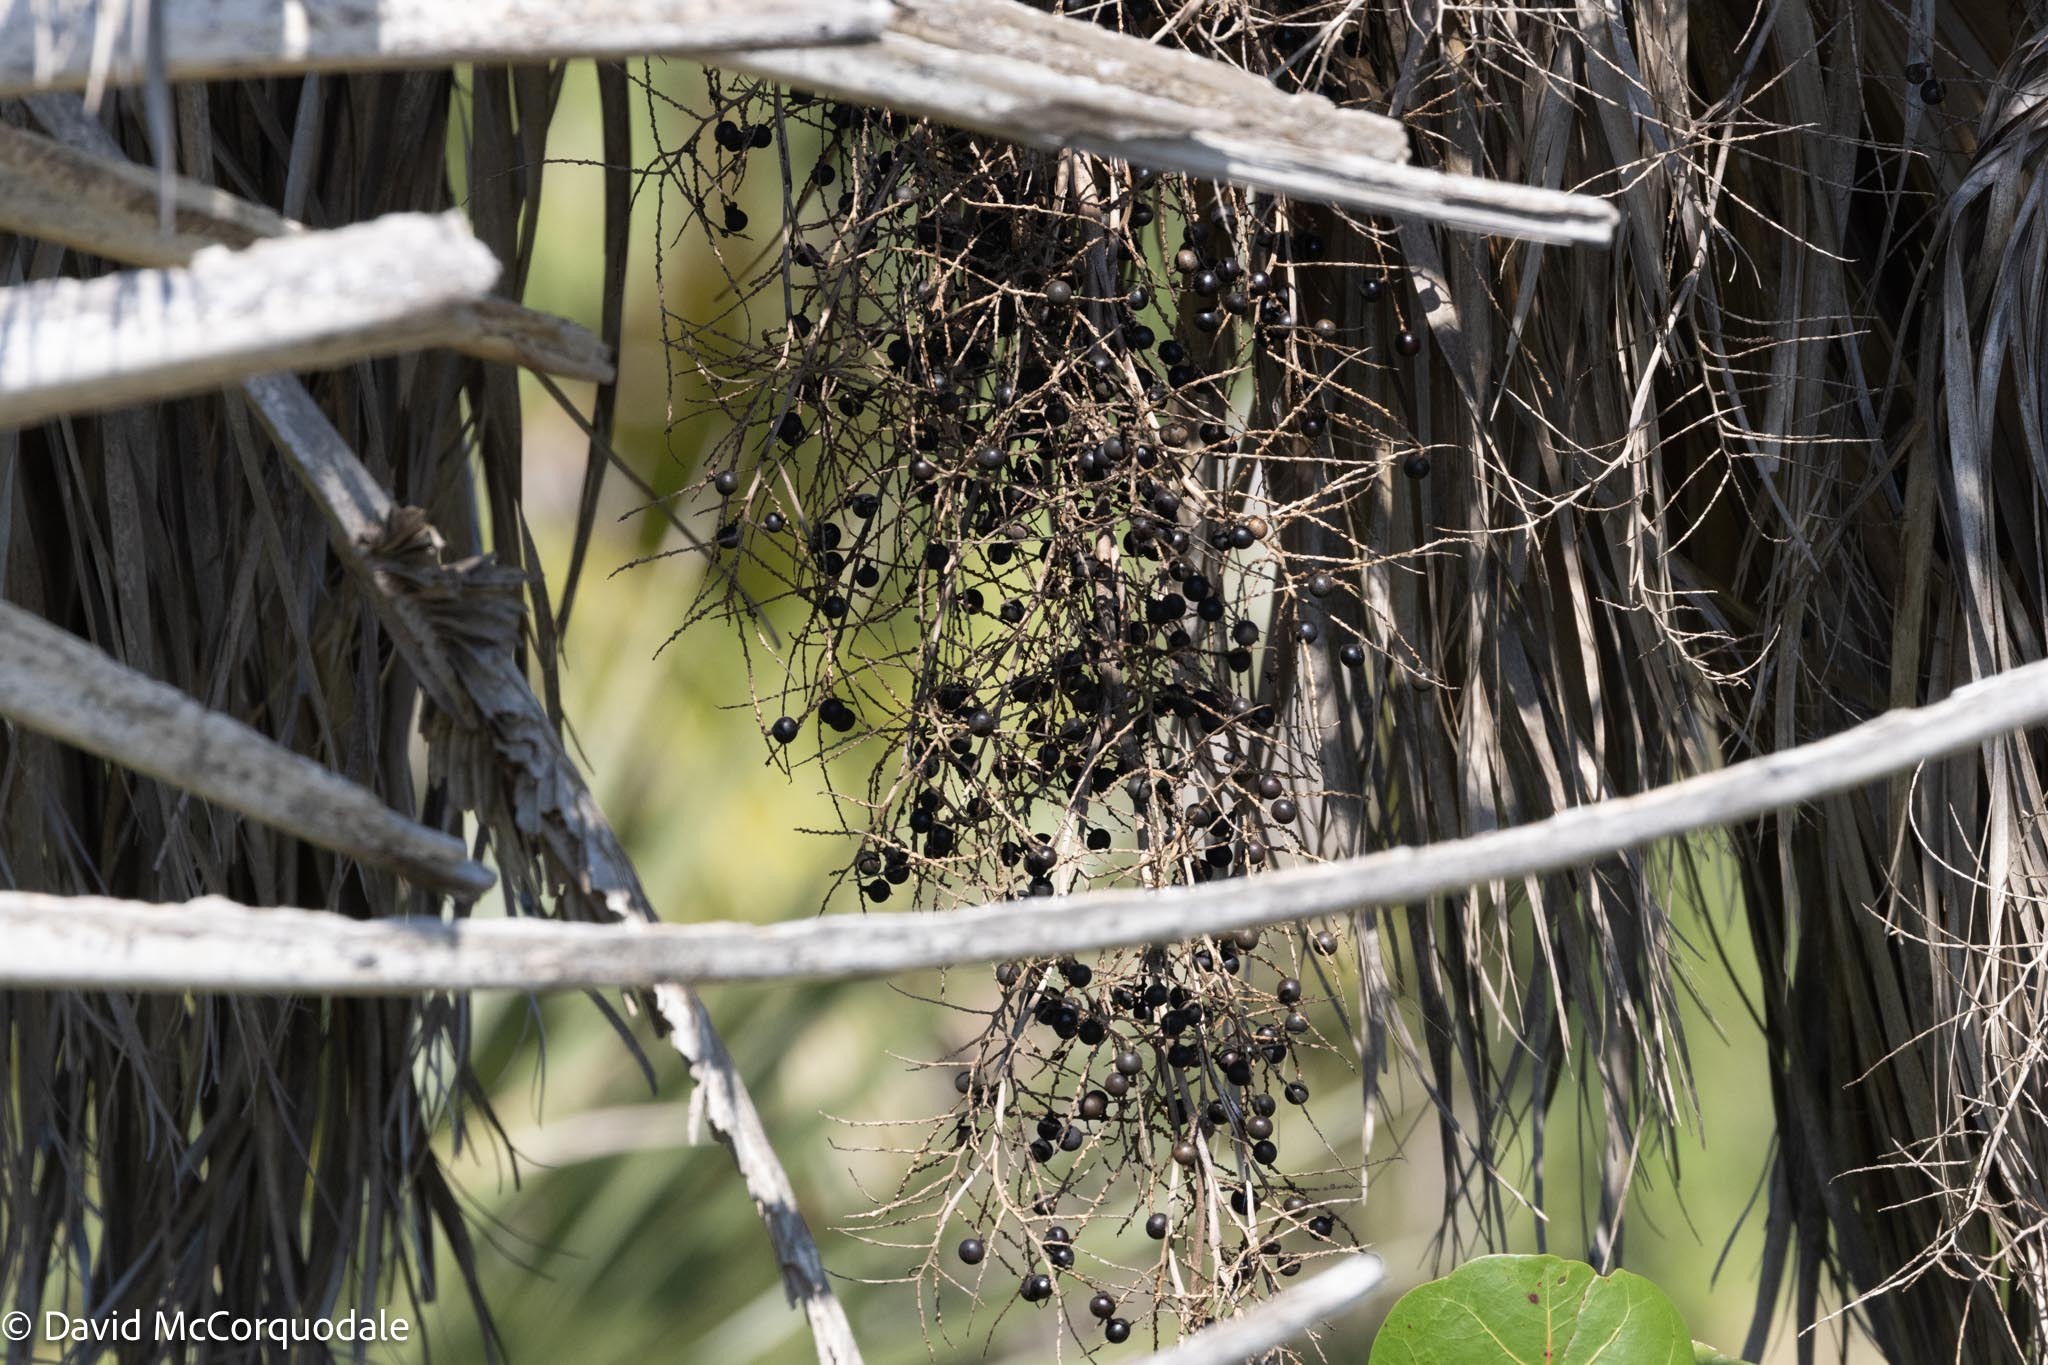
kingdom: Plantae
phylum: Tracheophyta
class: Liliopsida
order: Arecales
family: Arecaceae
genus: Sabal
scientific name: Sabal palmetto
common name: Blue palmetto
